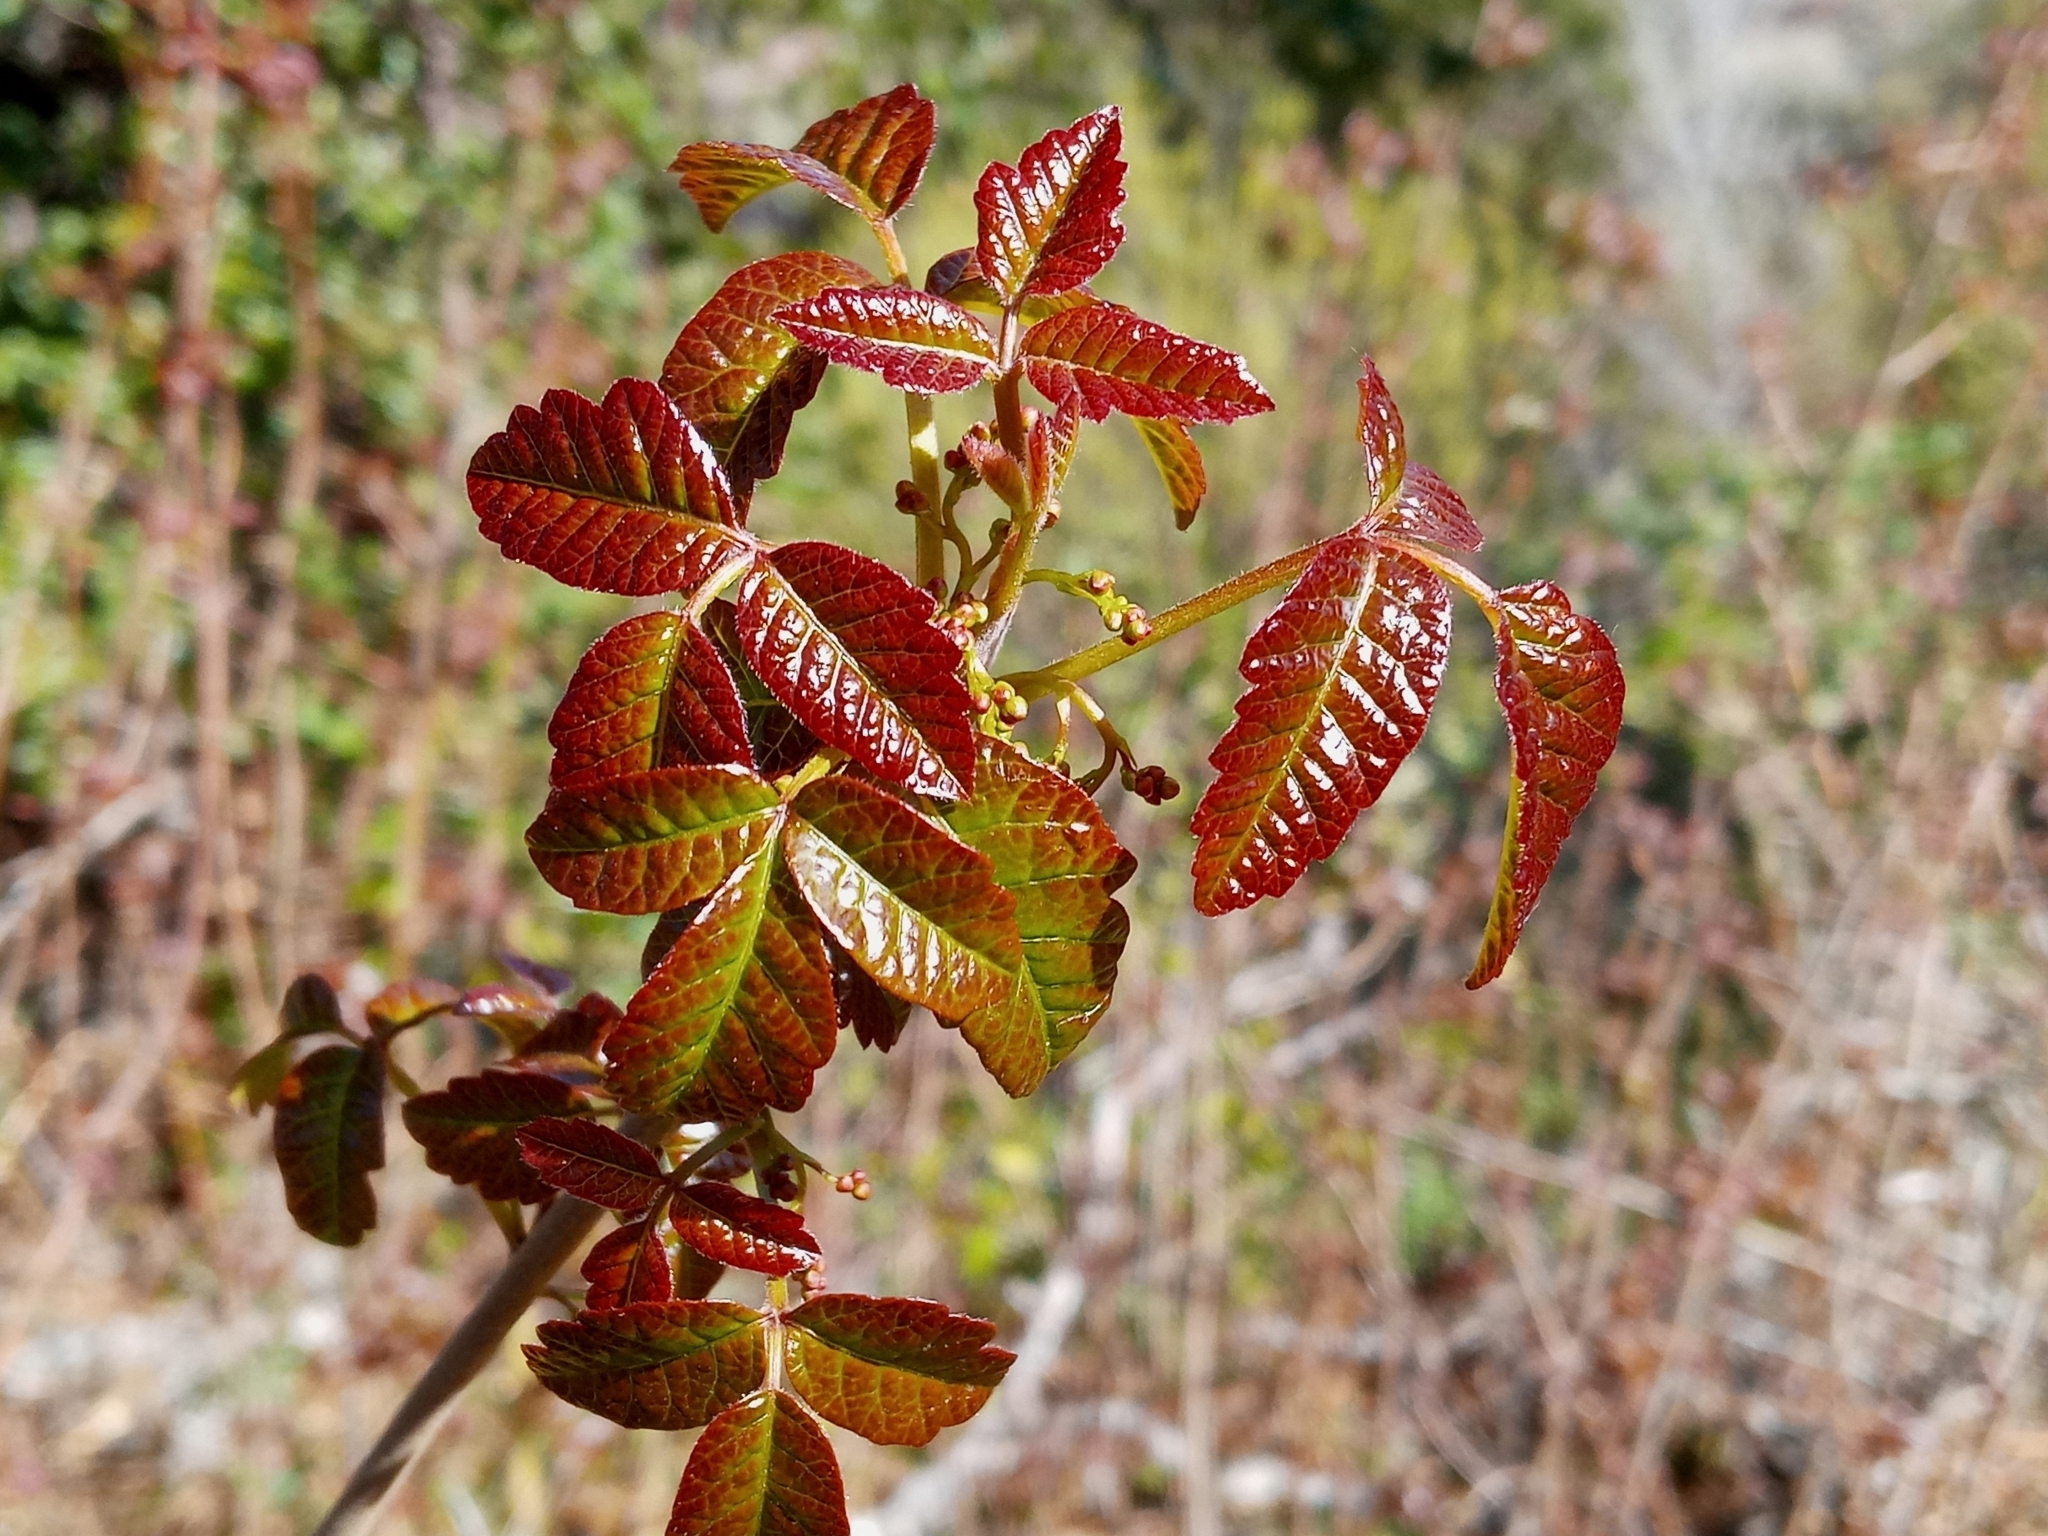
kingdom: Plantae
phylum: Tracheophyta
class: Magnoliopsida
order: Sapindales
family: Anacardiaceae
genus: Toxicodendron
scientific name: Toxicodendron diversilobum
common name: Pacific poison-oak
